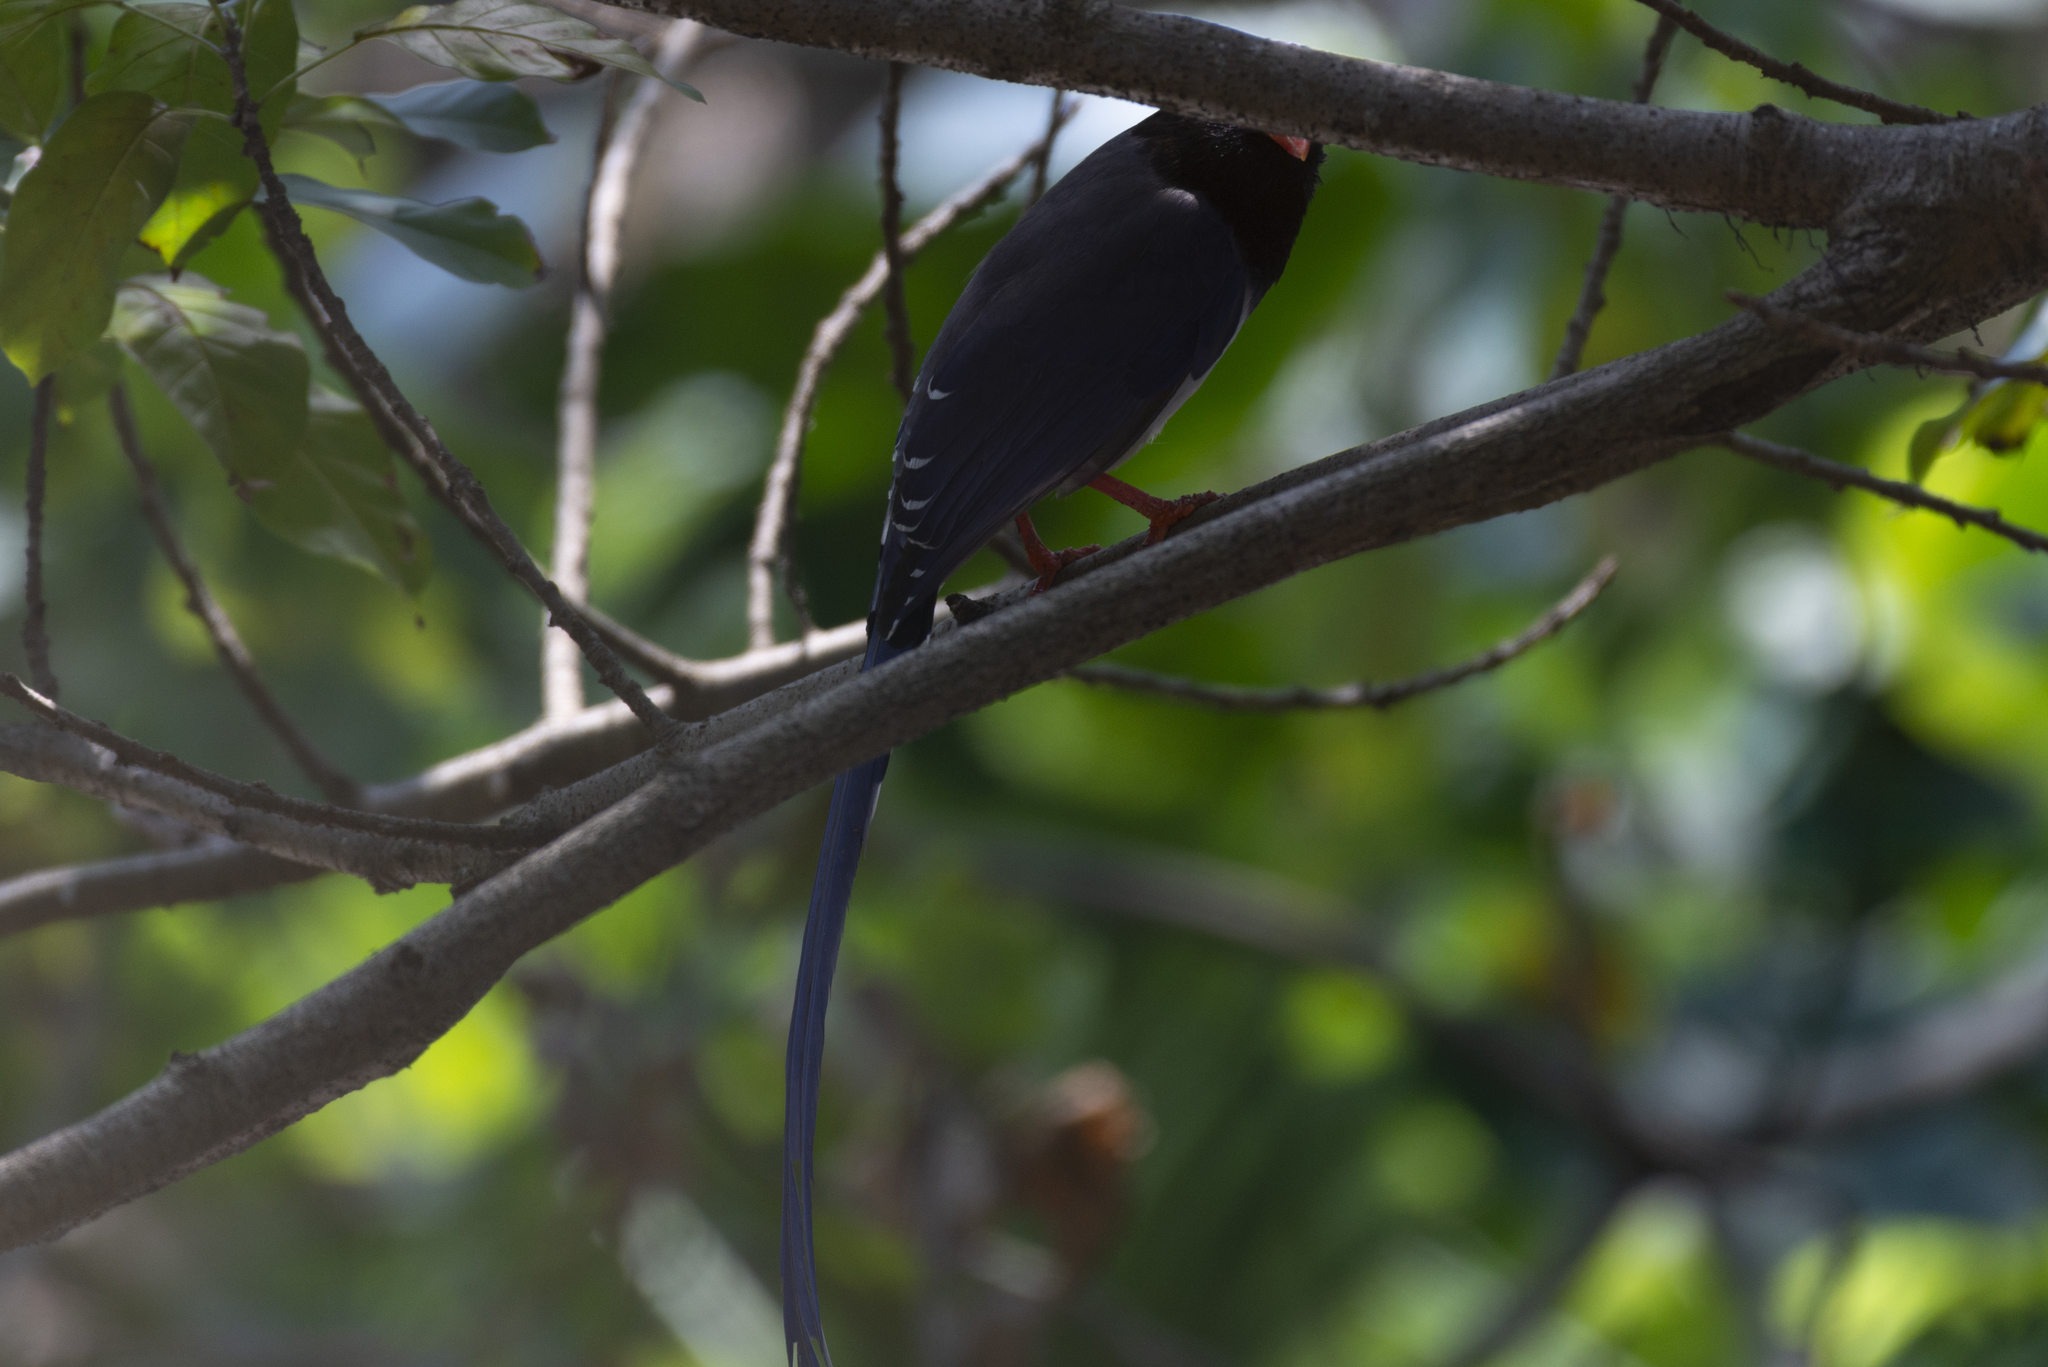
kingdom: Animalia
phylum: Chordata
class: Aves
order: Passeriformes
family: Corvidae
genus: Urocissa
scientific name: Urocissa erythroryncha
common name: Red-billed blue magpie
